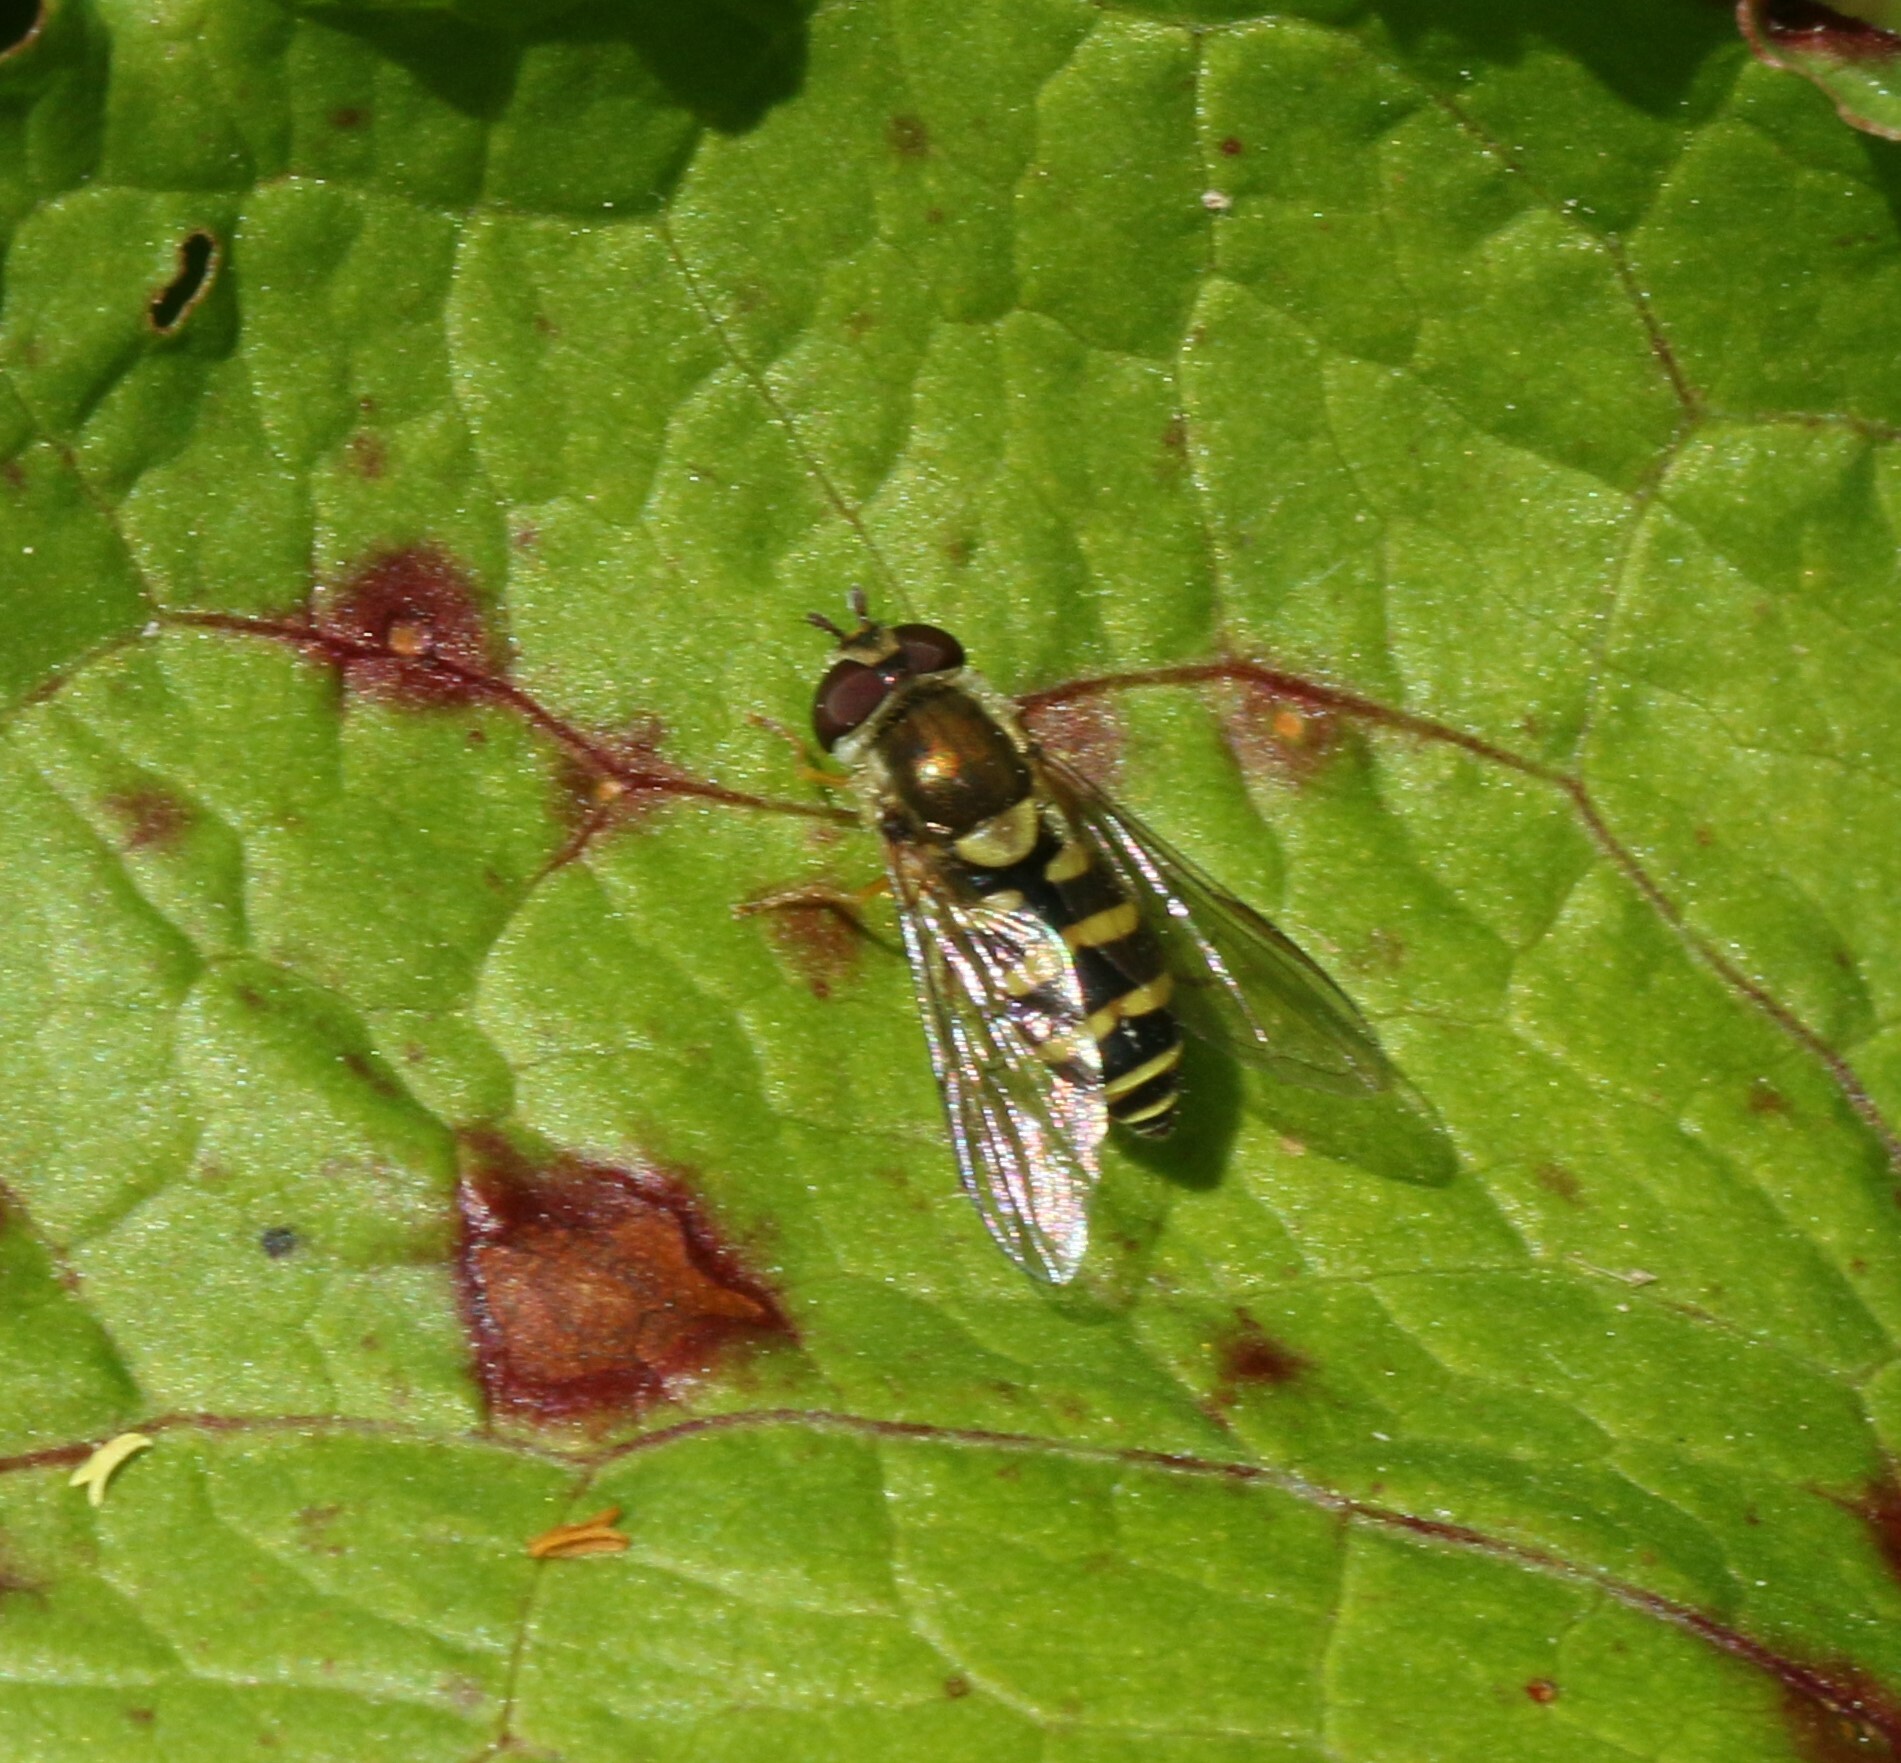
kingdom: Animalia
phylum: Arthropoda
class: Insecta
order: Diptera
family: Syrphidae
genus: Syrphus
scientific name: Syrphus
